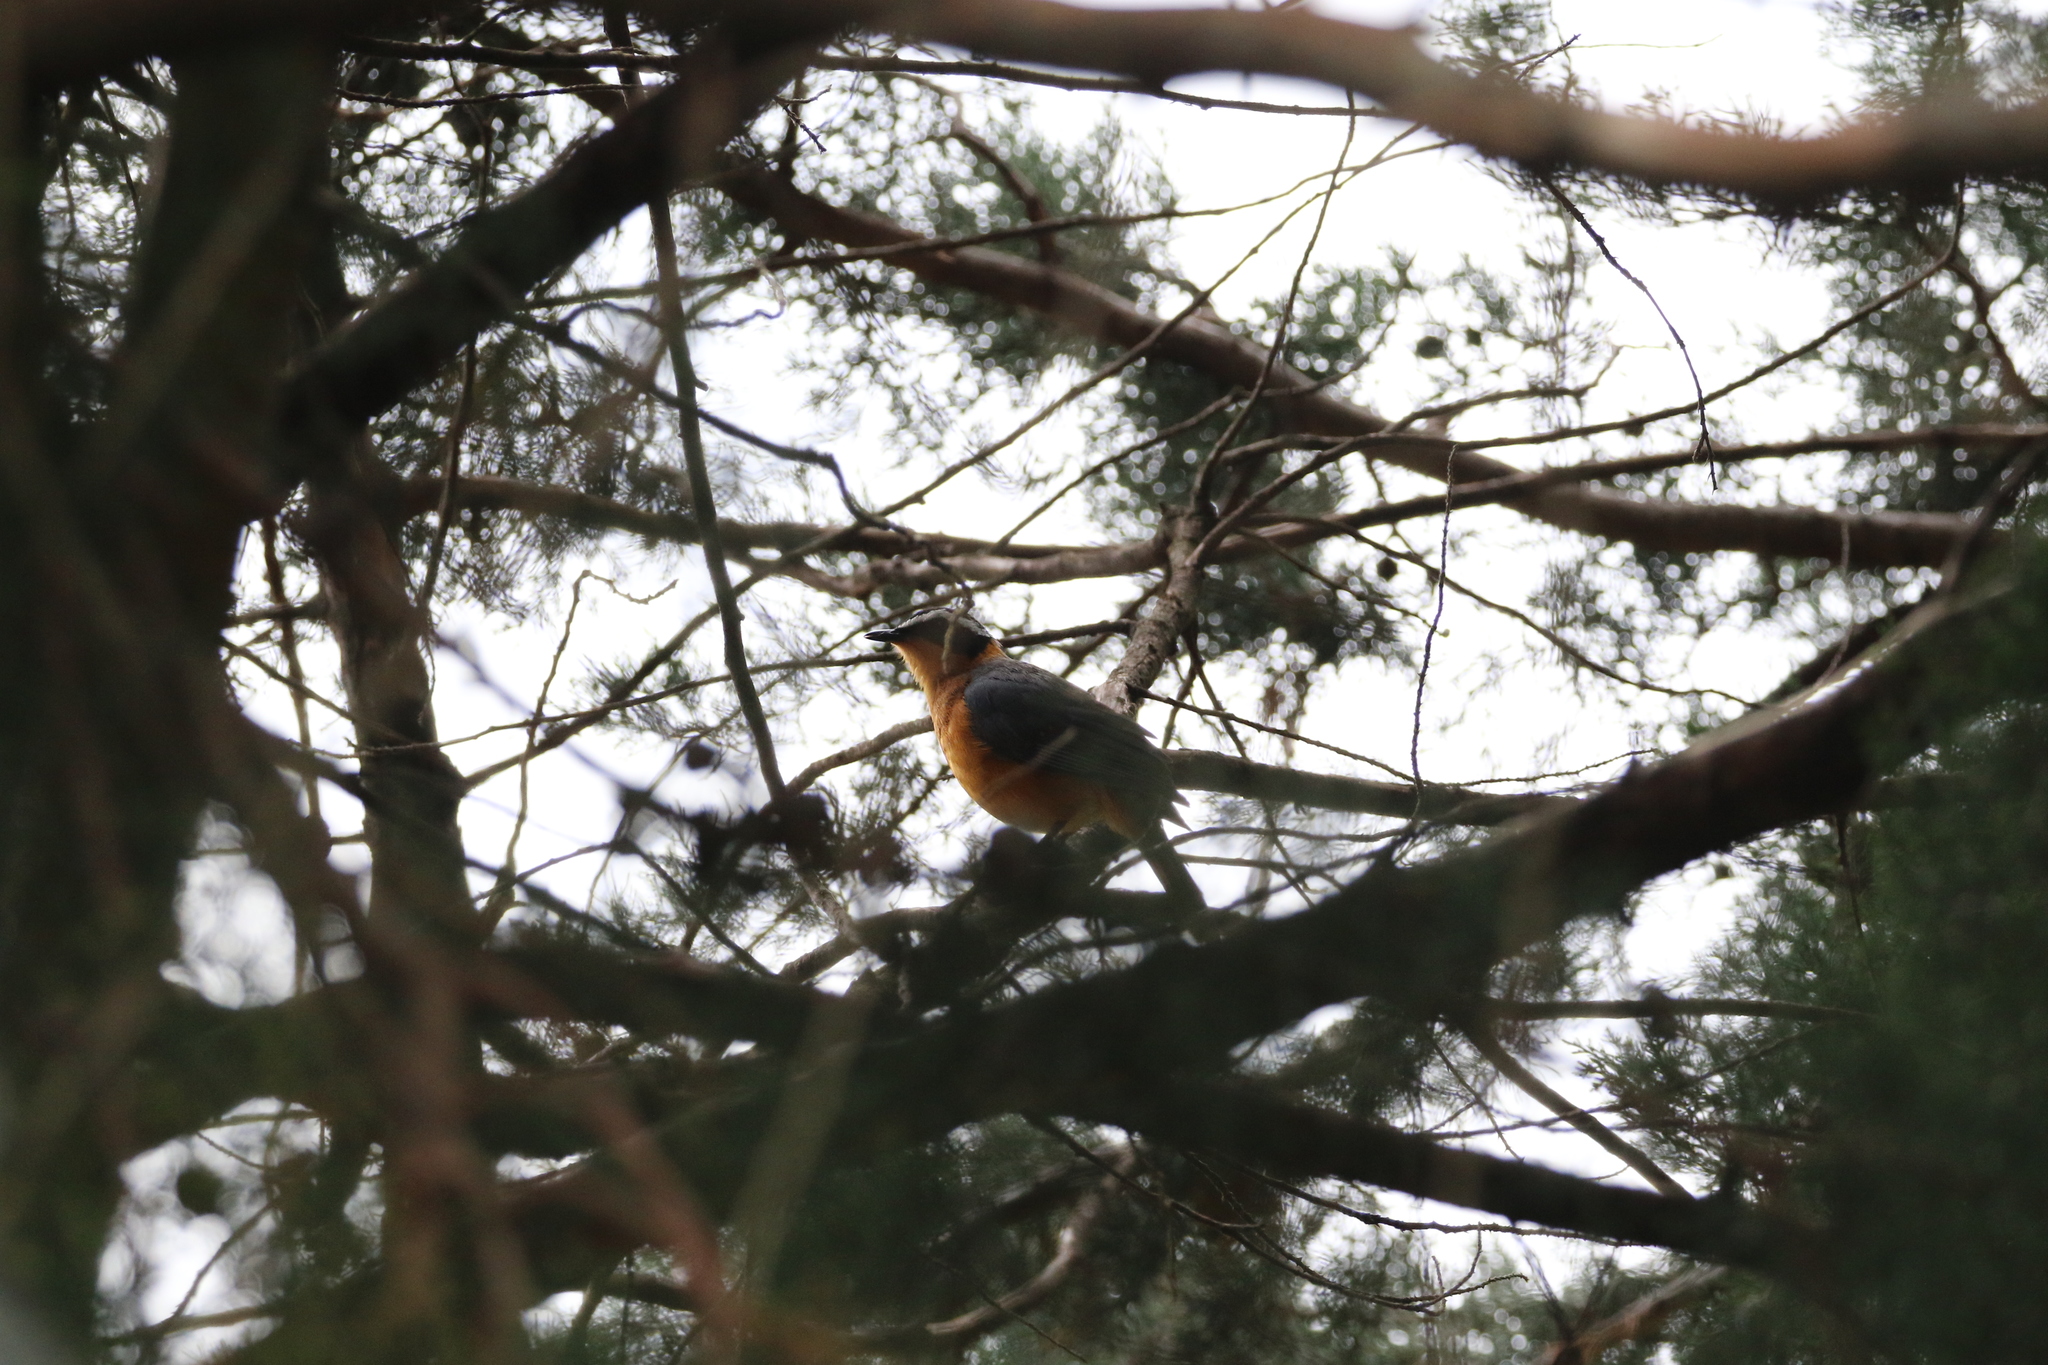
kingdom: Animalia
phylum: Chordata
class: Aves
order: Passeriformes
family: Muscicapidae
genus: Cossypha
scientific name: Cossypha heuglini
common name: White-browed robin-chat
